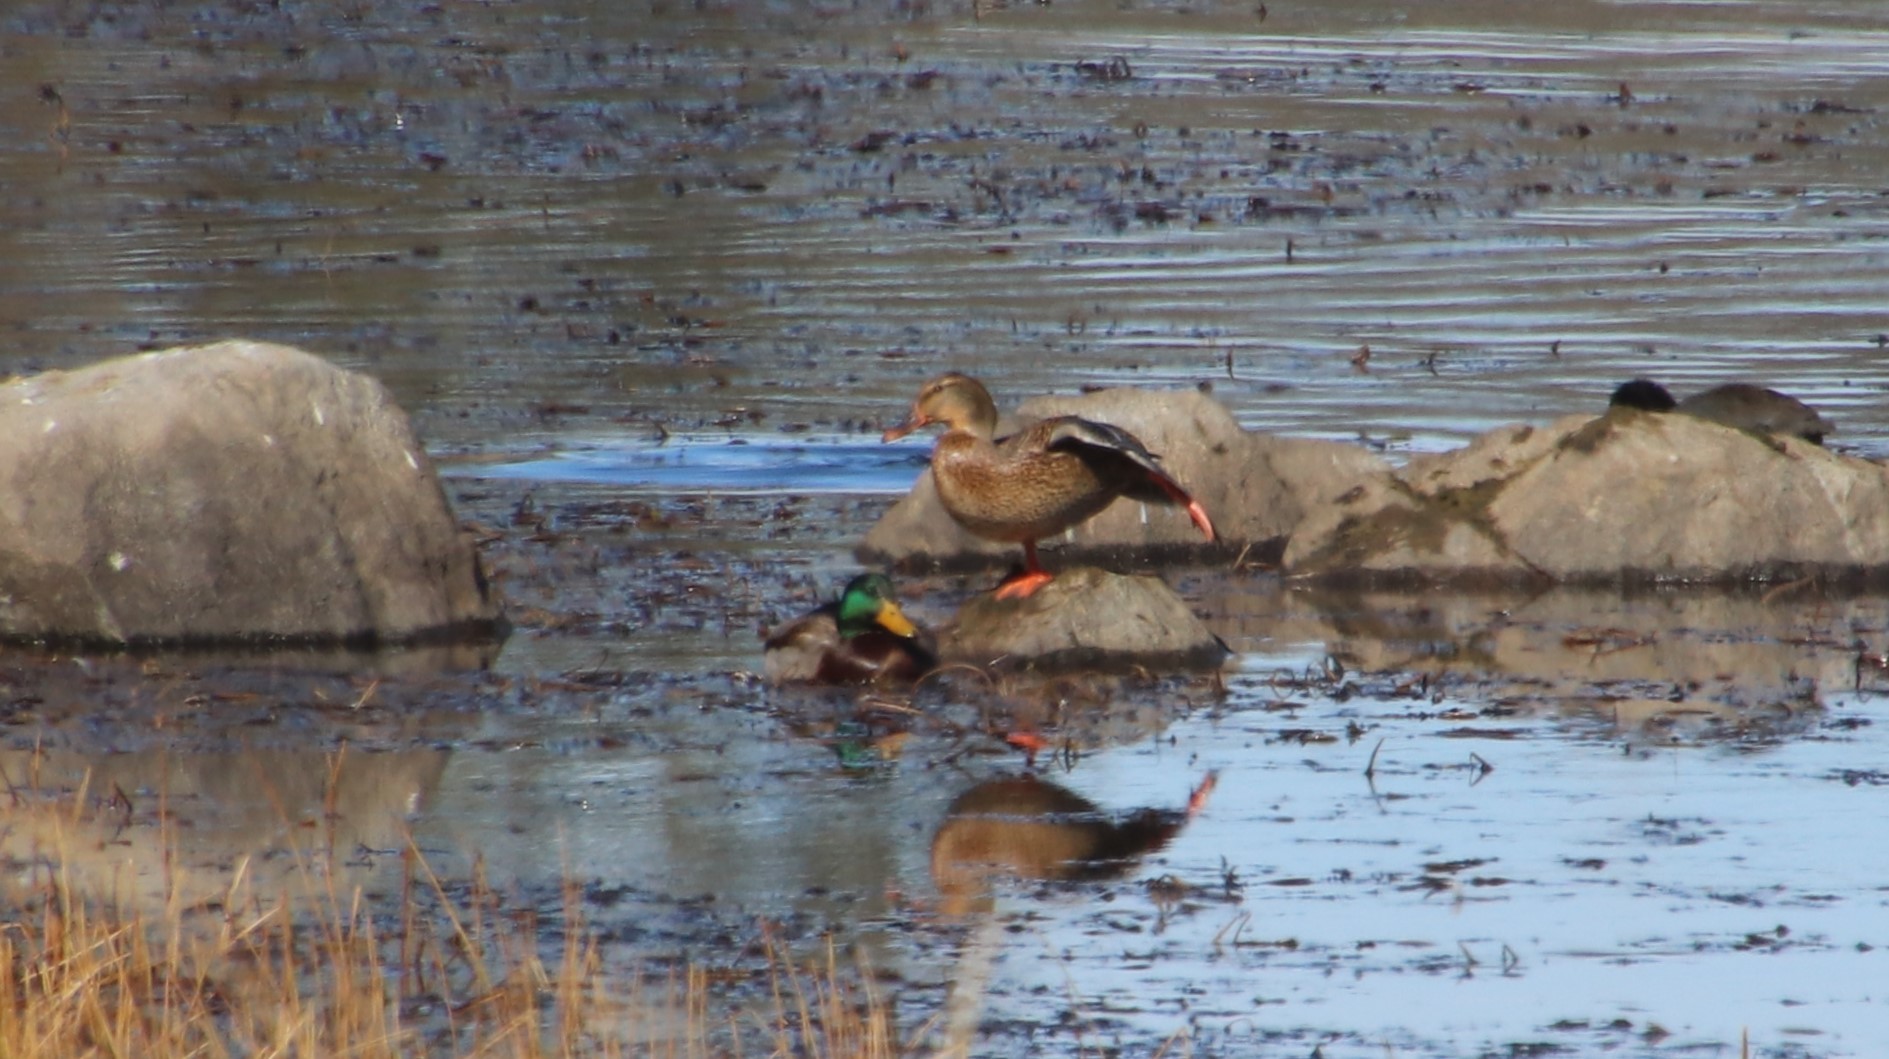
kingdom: Animalia
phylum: Chordata
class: Aves
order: Anseriformes
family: Anatidae
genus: Anas
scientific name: Anas platyrhynchos
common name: Mallard
